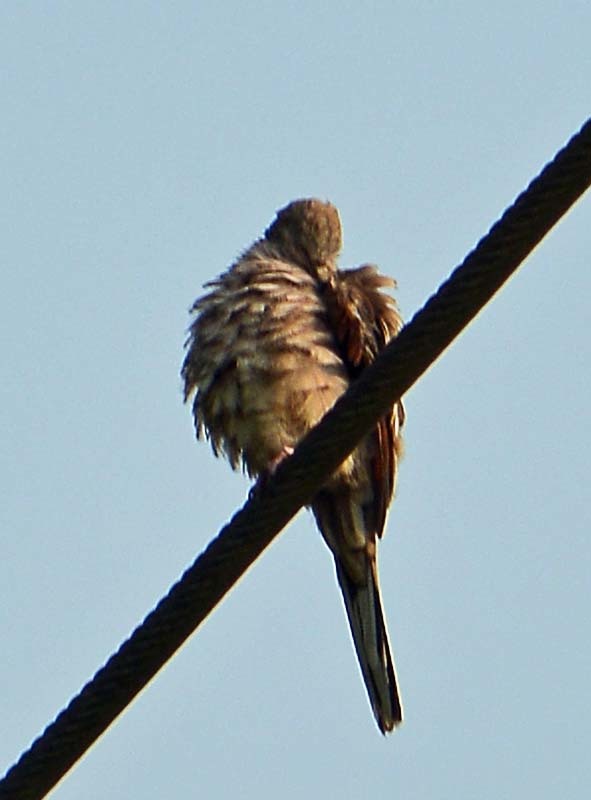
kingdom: Animalia
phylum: Chordata
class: Aves
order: Columbiformes
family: Columbidae
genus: Columbina
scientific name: Columbina inca
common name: Inca dove
